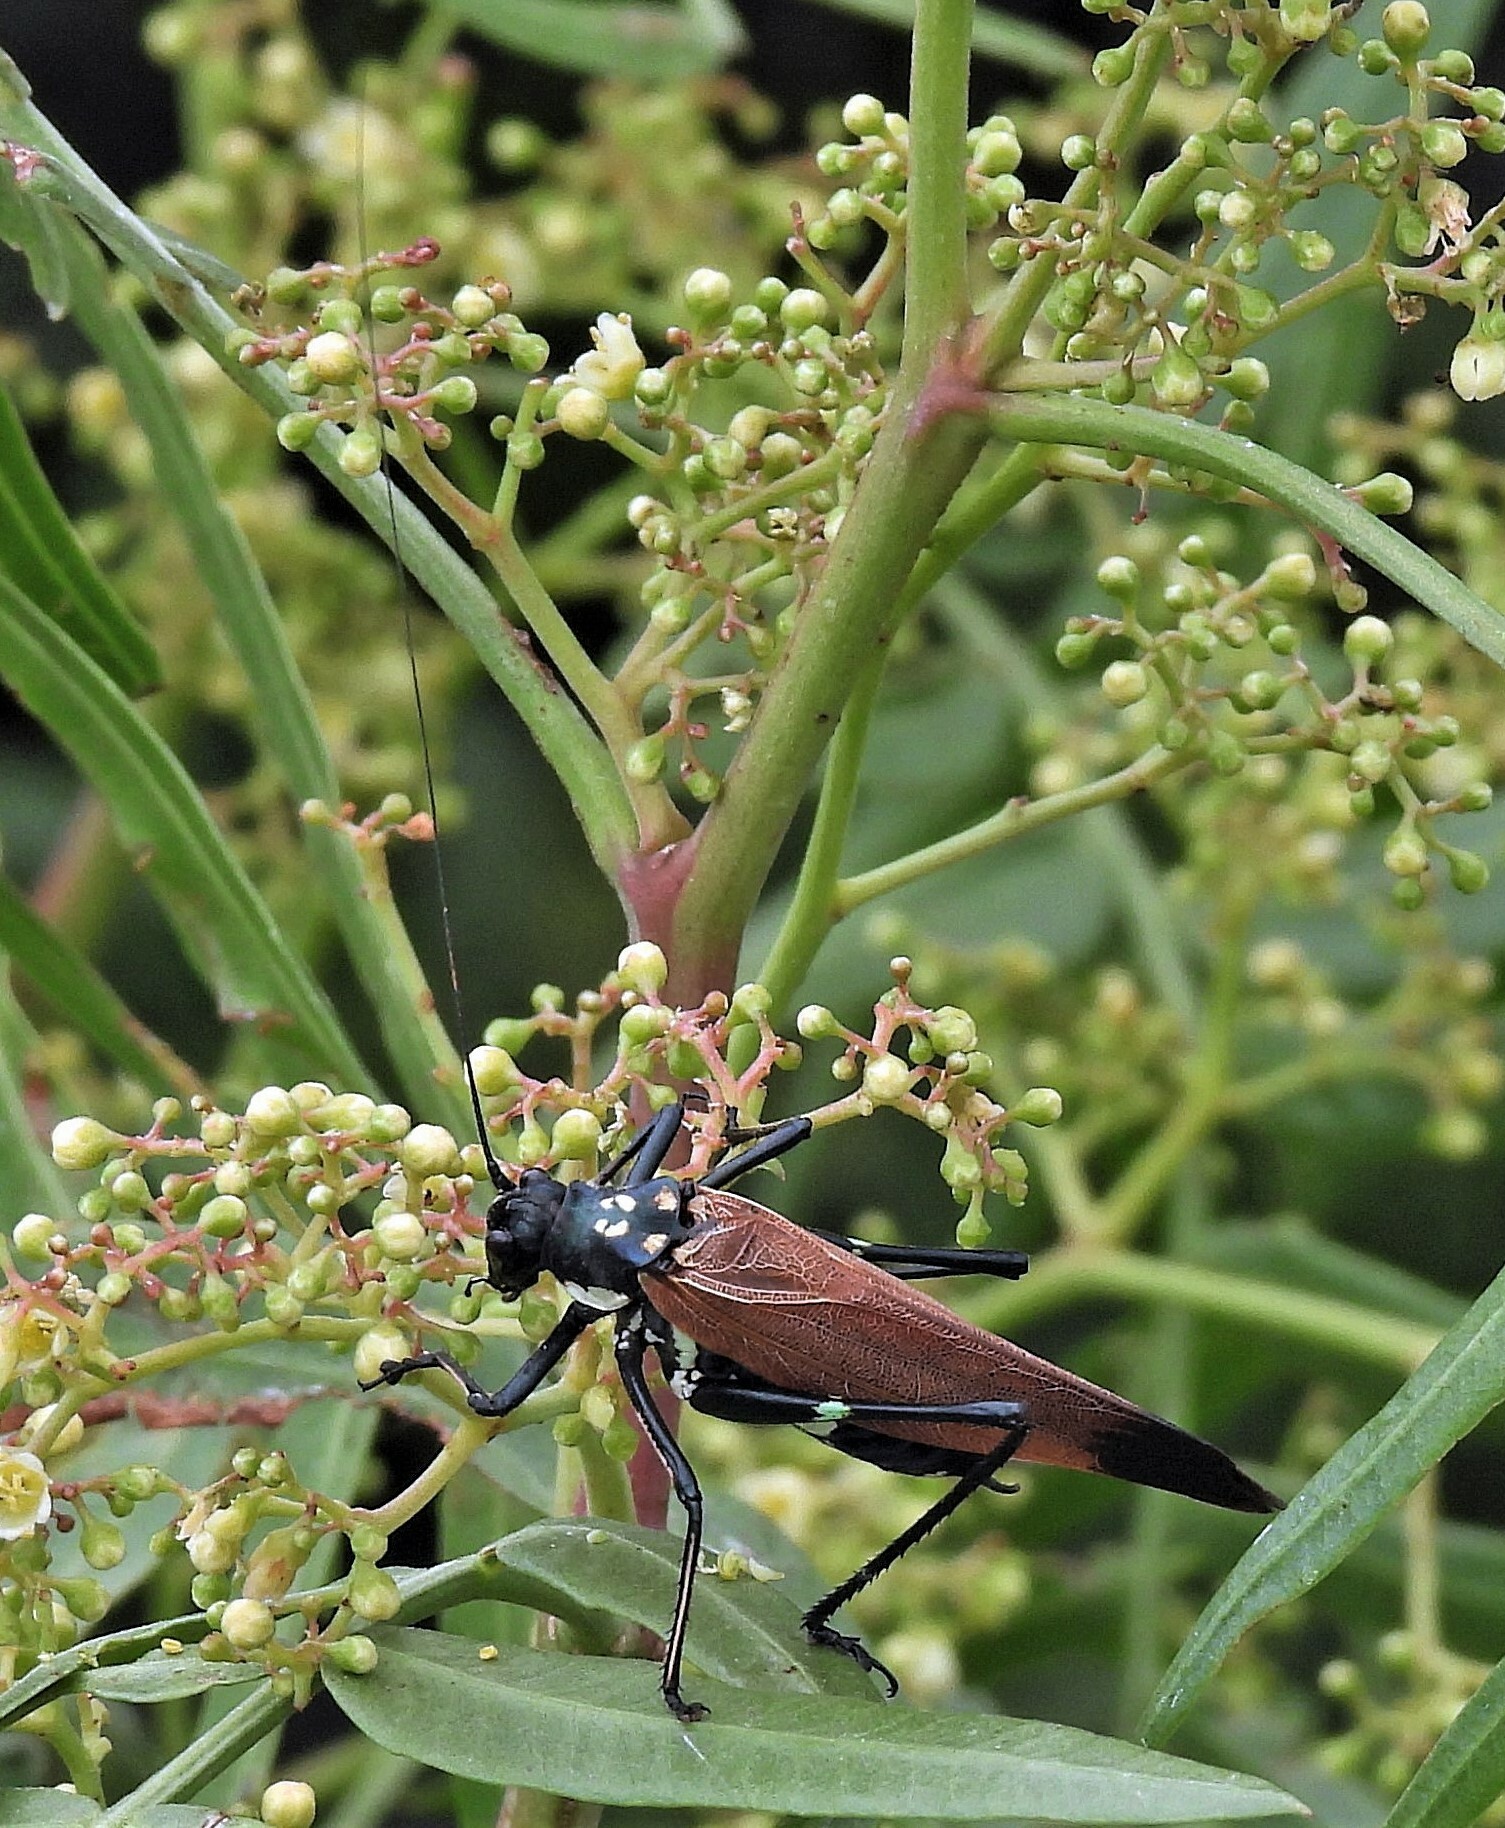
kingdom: Animalia
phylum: Arthropoda
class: Insecta
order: Orthoptera
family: Tettigoniidae
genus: Scaphura
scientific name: Scaphura elegans
